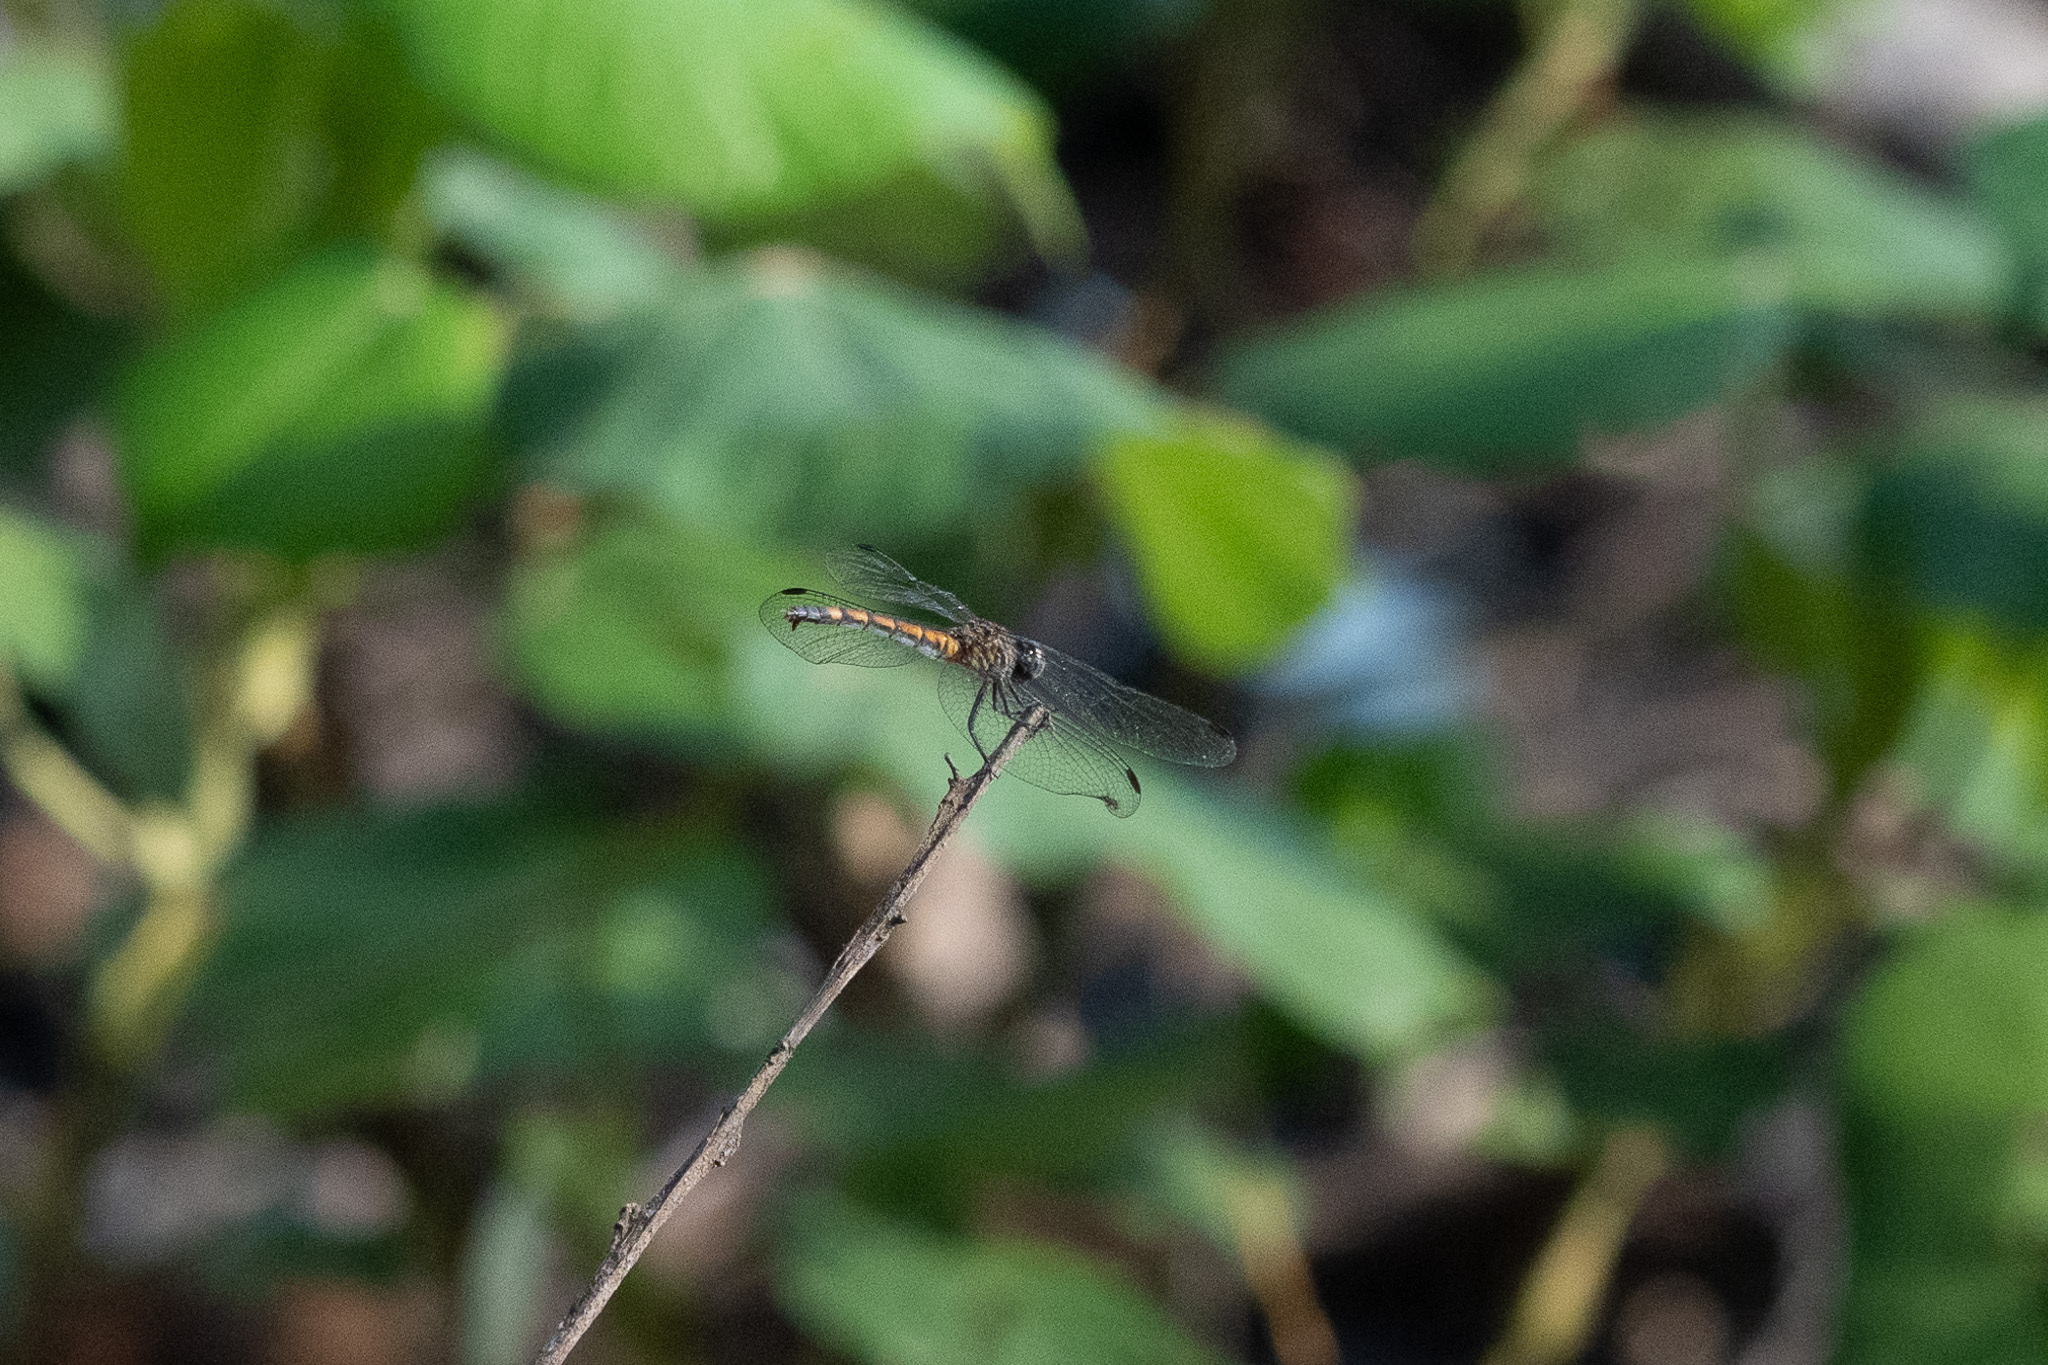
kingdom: Animalia
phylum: Arthropoda
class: Insecta
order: Odonata
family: Libellulidae
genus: Erythrodiplax
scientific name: Erythrodiplax berenice
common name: Seaside dragonlet
